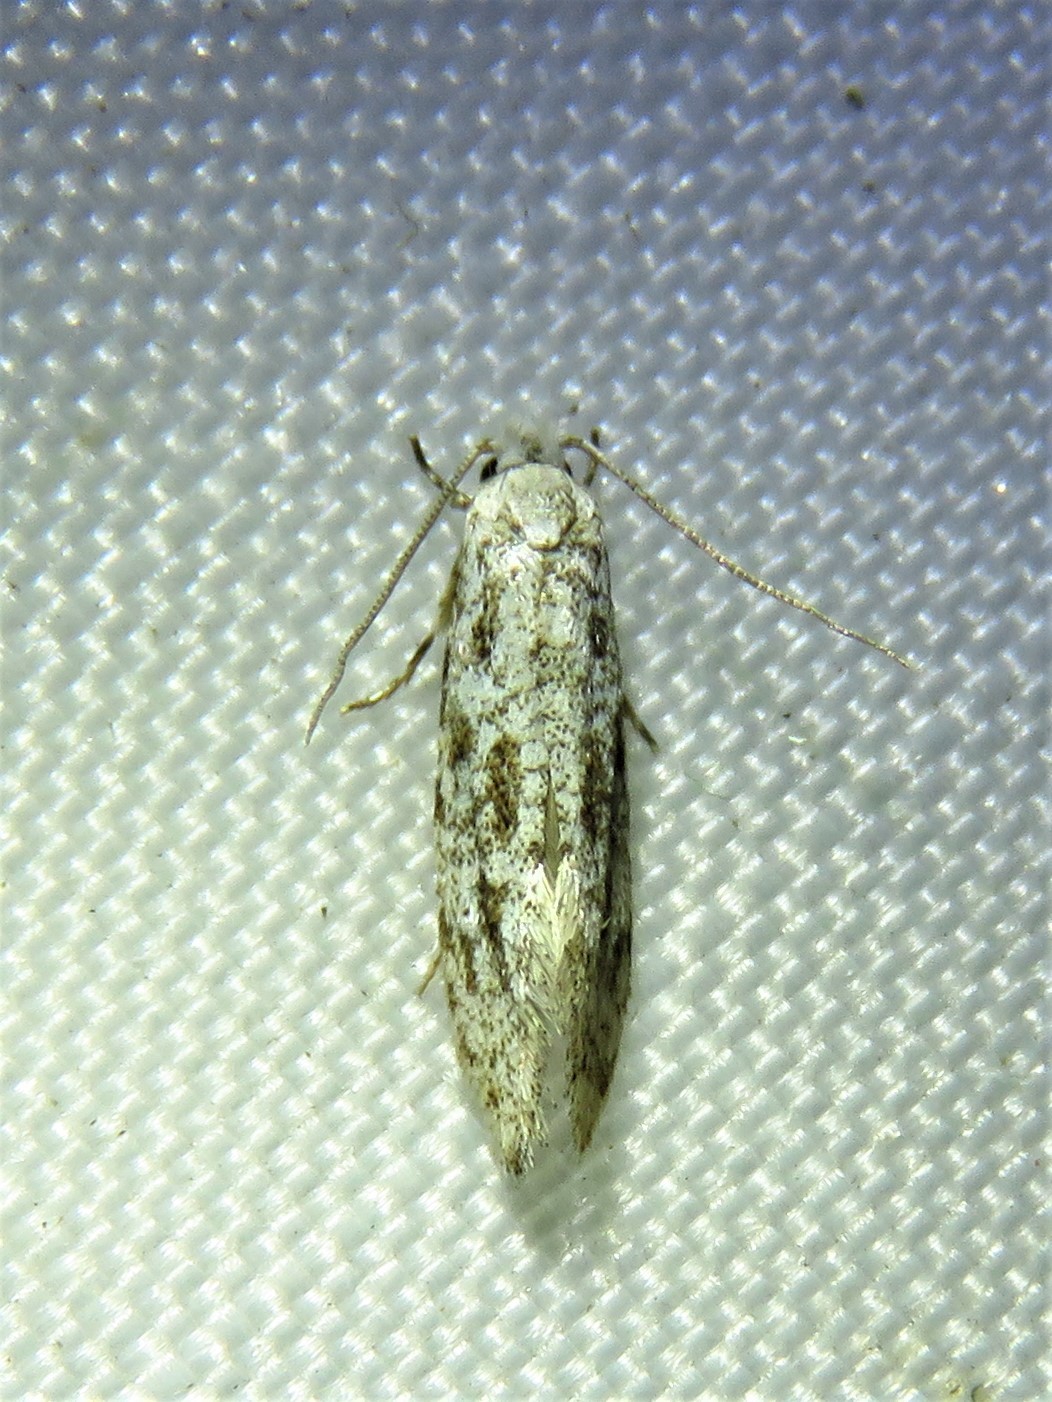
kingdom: Animalia
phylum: Arthropoda
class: Insecta
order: Lepidoptera
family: Meessiidae
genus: Diachorisia
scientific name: Diachorisia velatella
